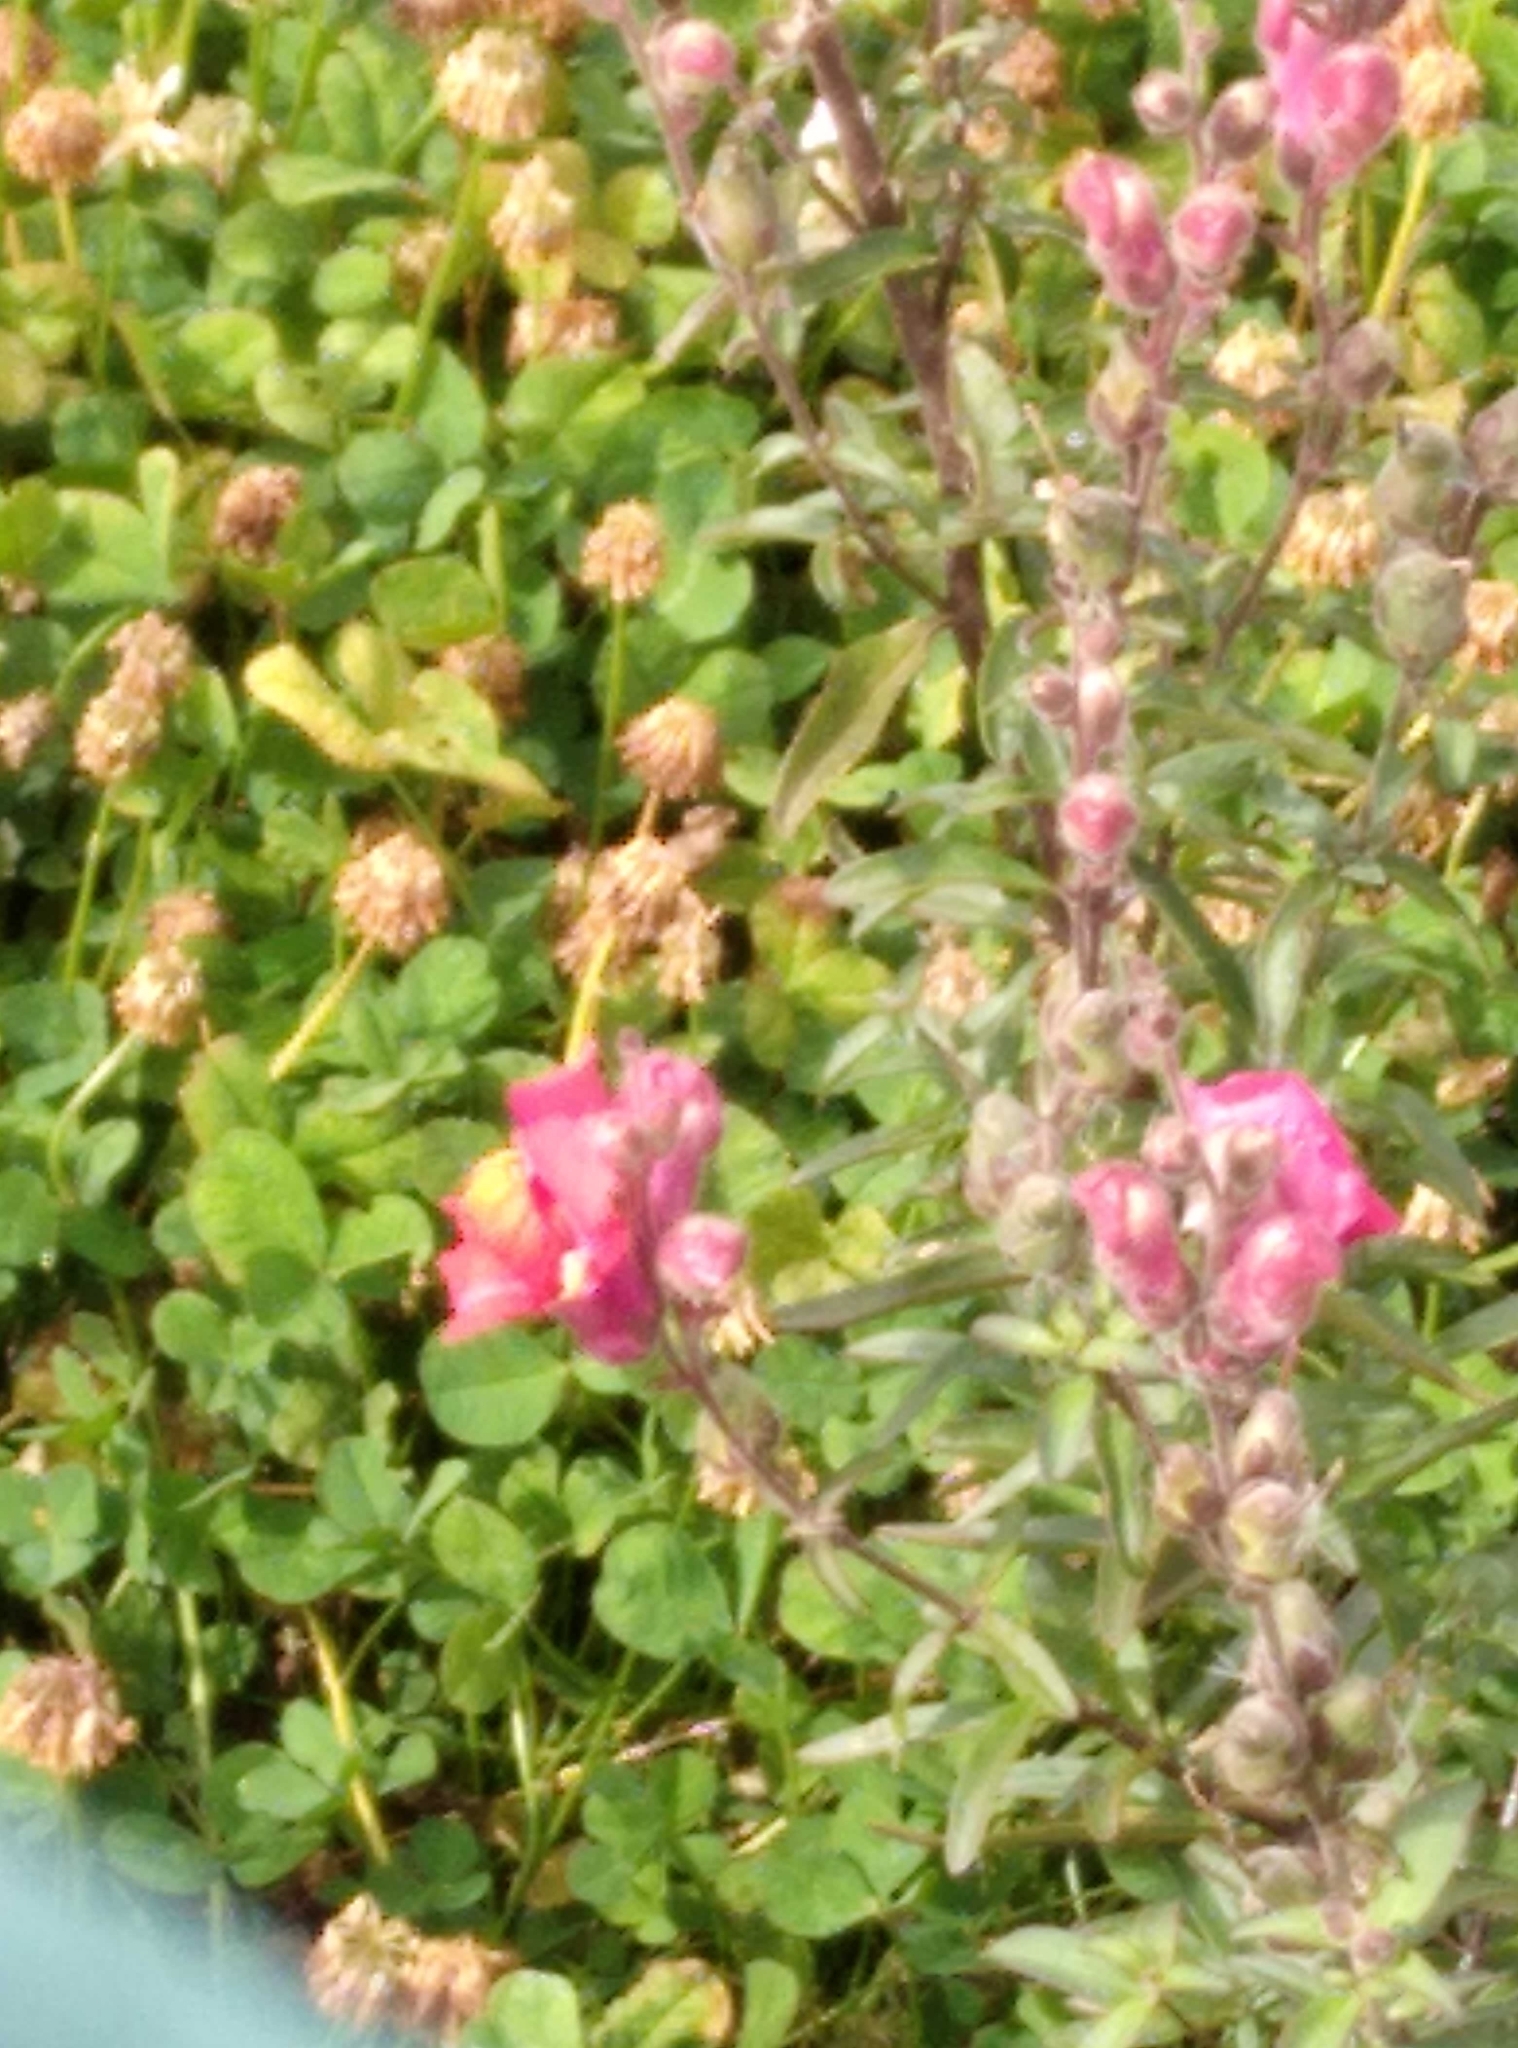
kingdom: Plantae
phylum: Tracheophyta
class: Magnoliopsida
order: Lamiales
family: Plantaginaceae
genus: Antirrhinum
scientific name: Antirrhinum majus
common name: Snapdragon
